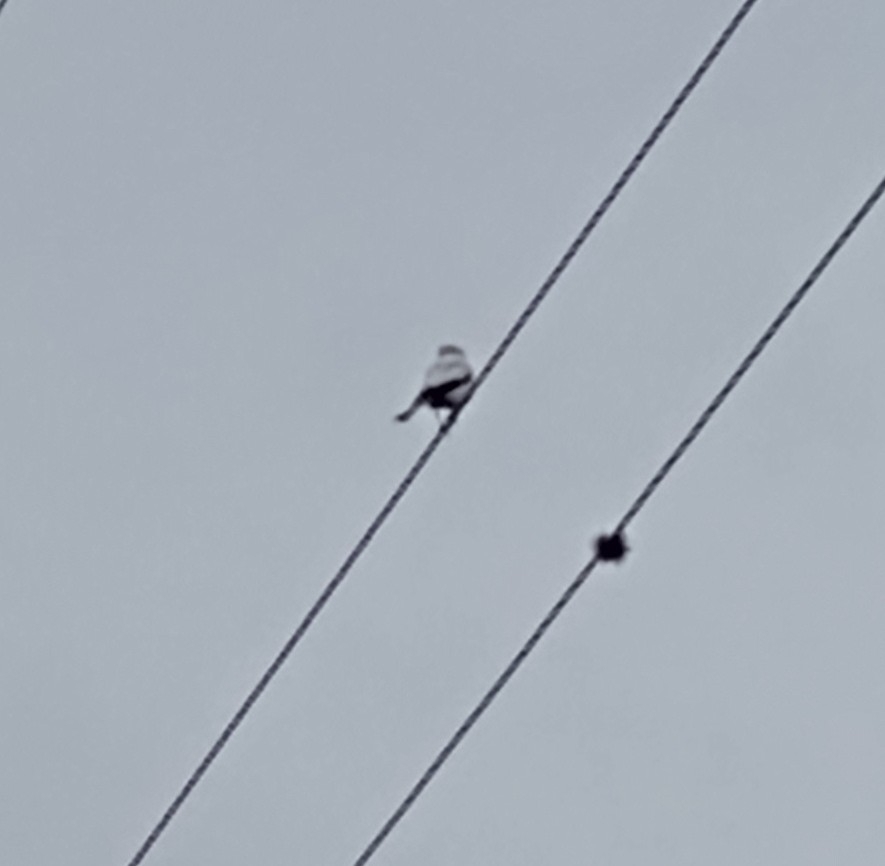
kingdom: Animalia
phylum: Chordata
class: Aves
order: Passeriformes
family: Tyrannidae
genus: Xolmis
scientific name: Xolmis irupero
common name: White monjita
